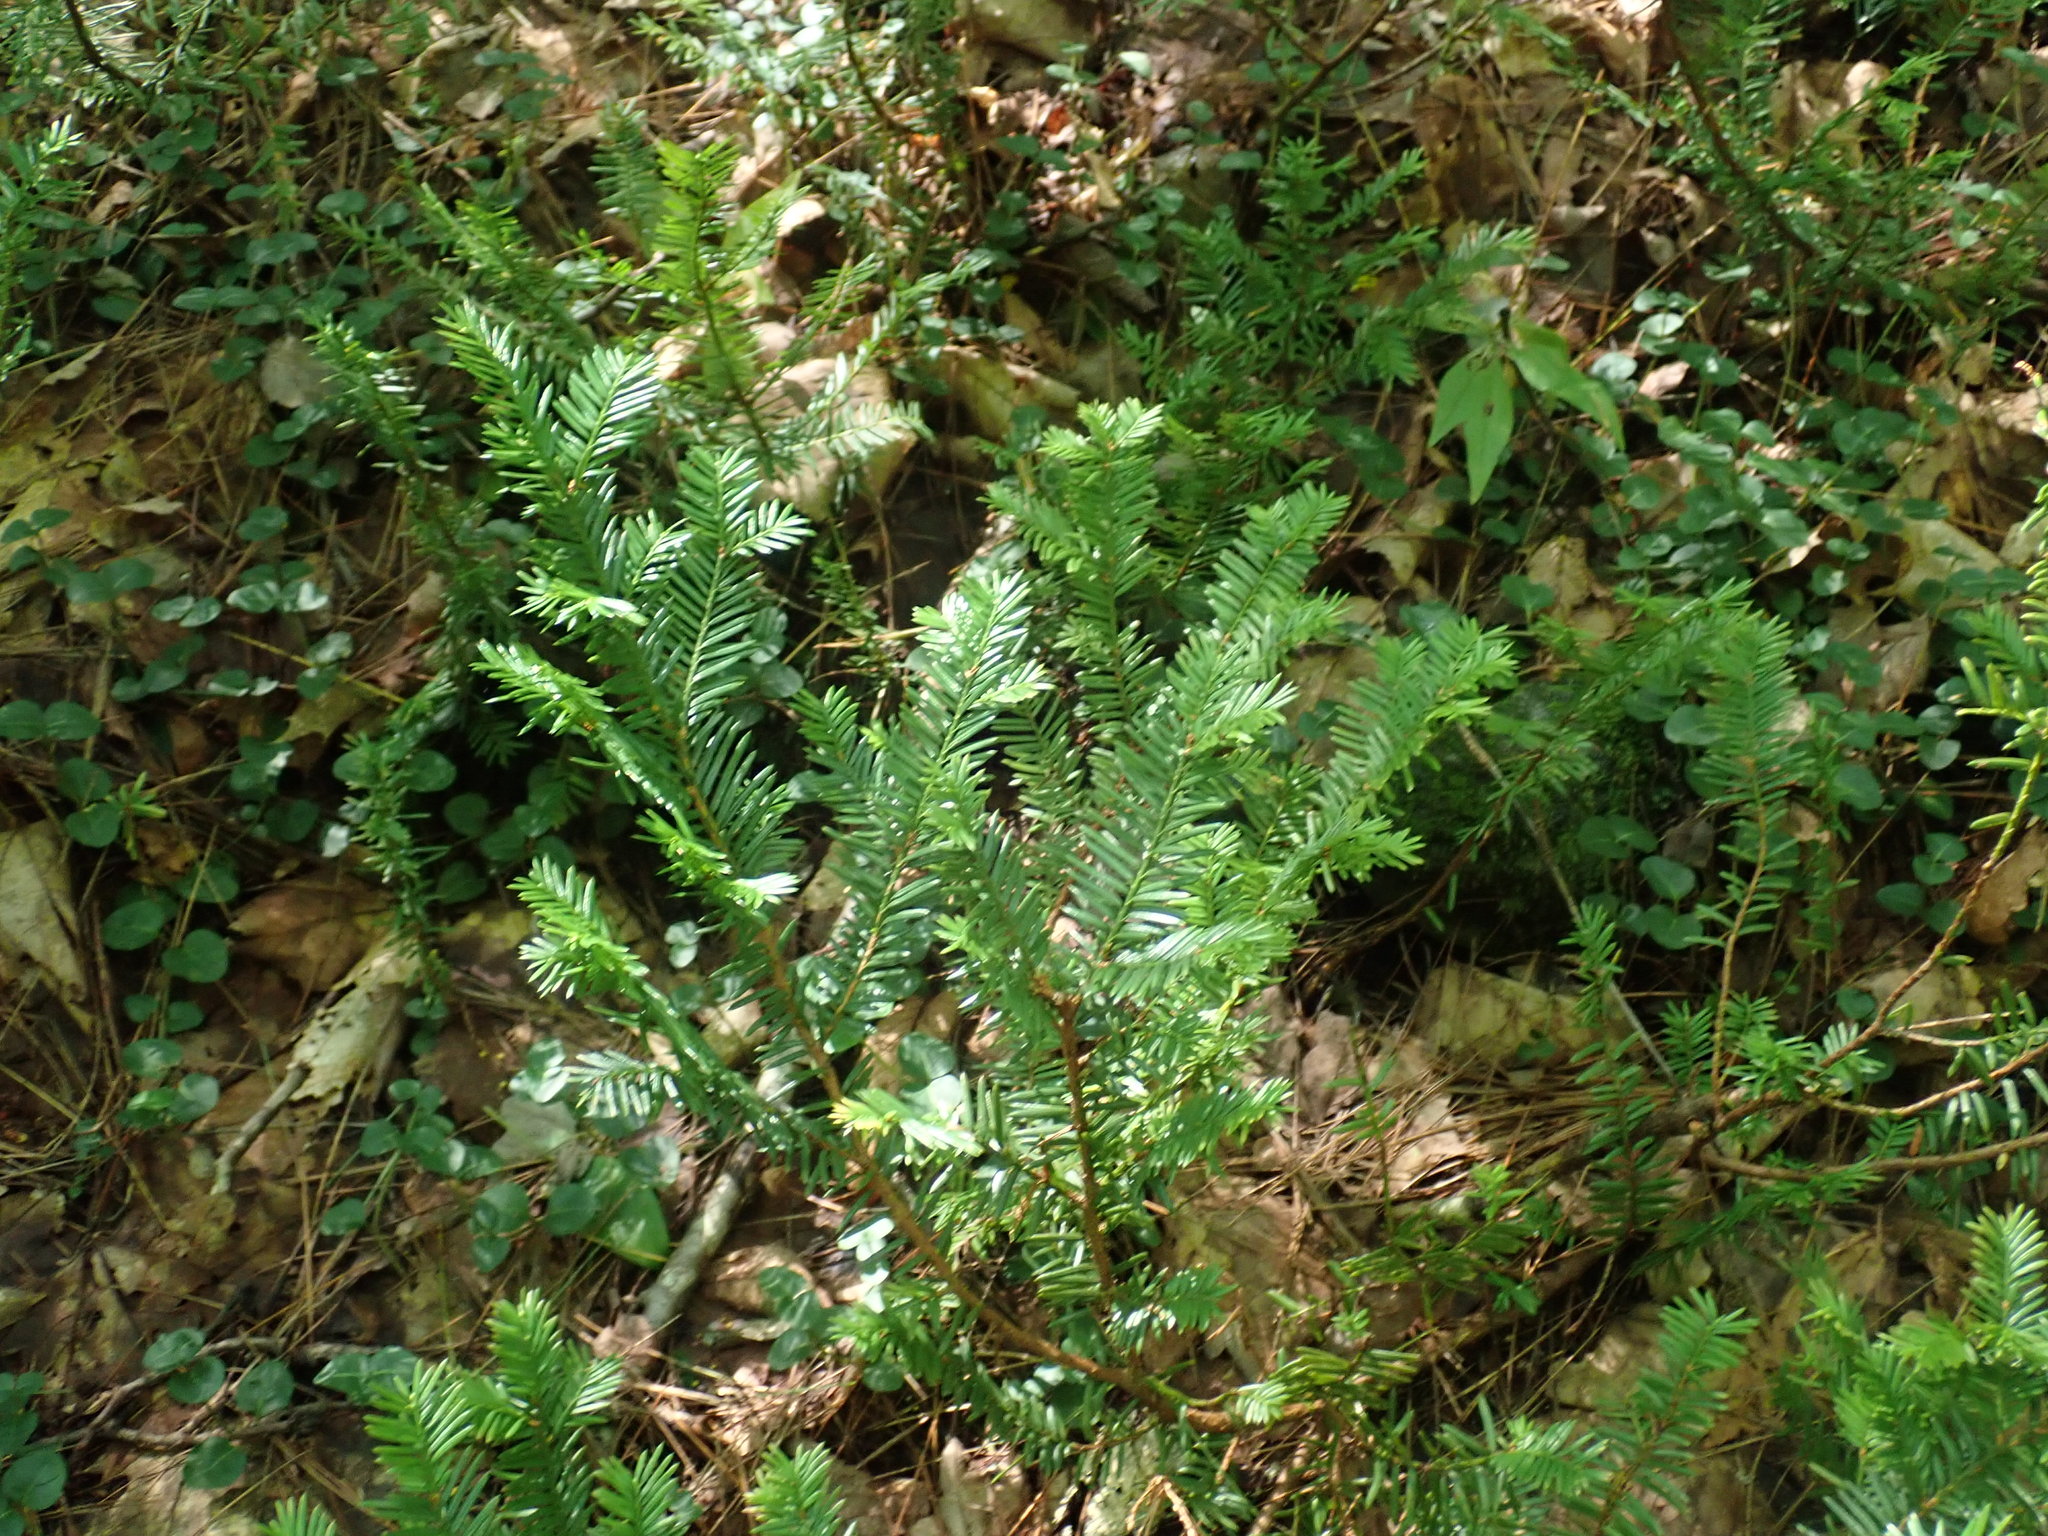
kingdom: Plantae
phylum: Tracheophyta
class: Pinopsida
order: Pinales
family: Taxaceae
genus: Taxus
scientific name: Taxus canadensis
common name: American yew
